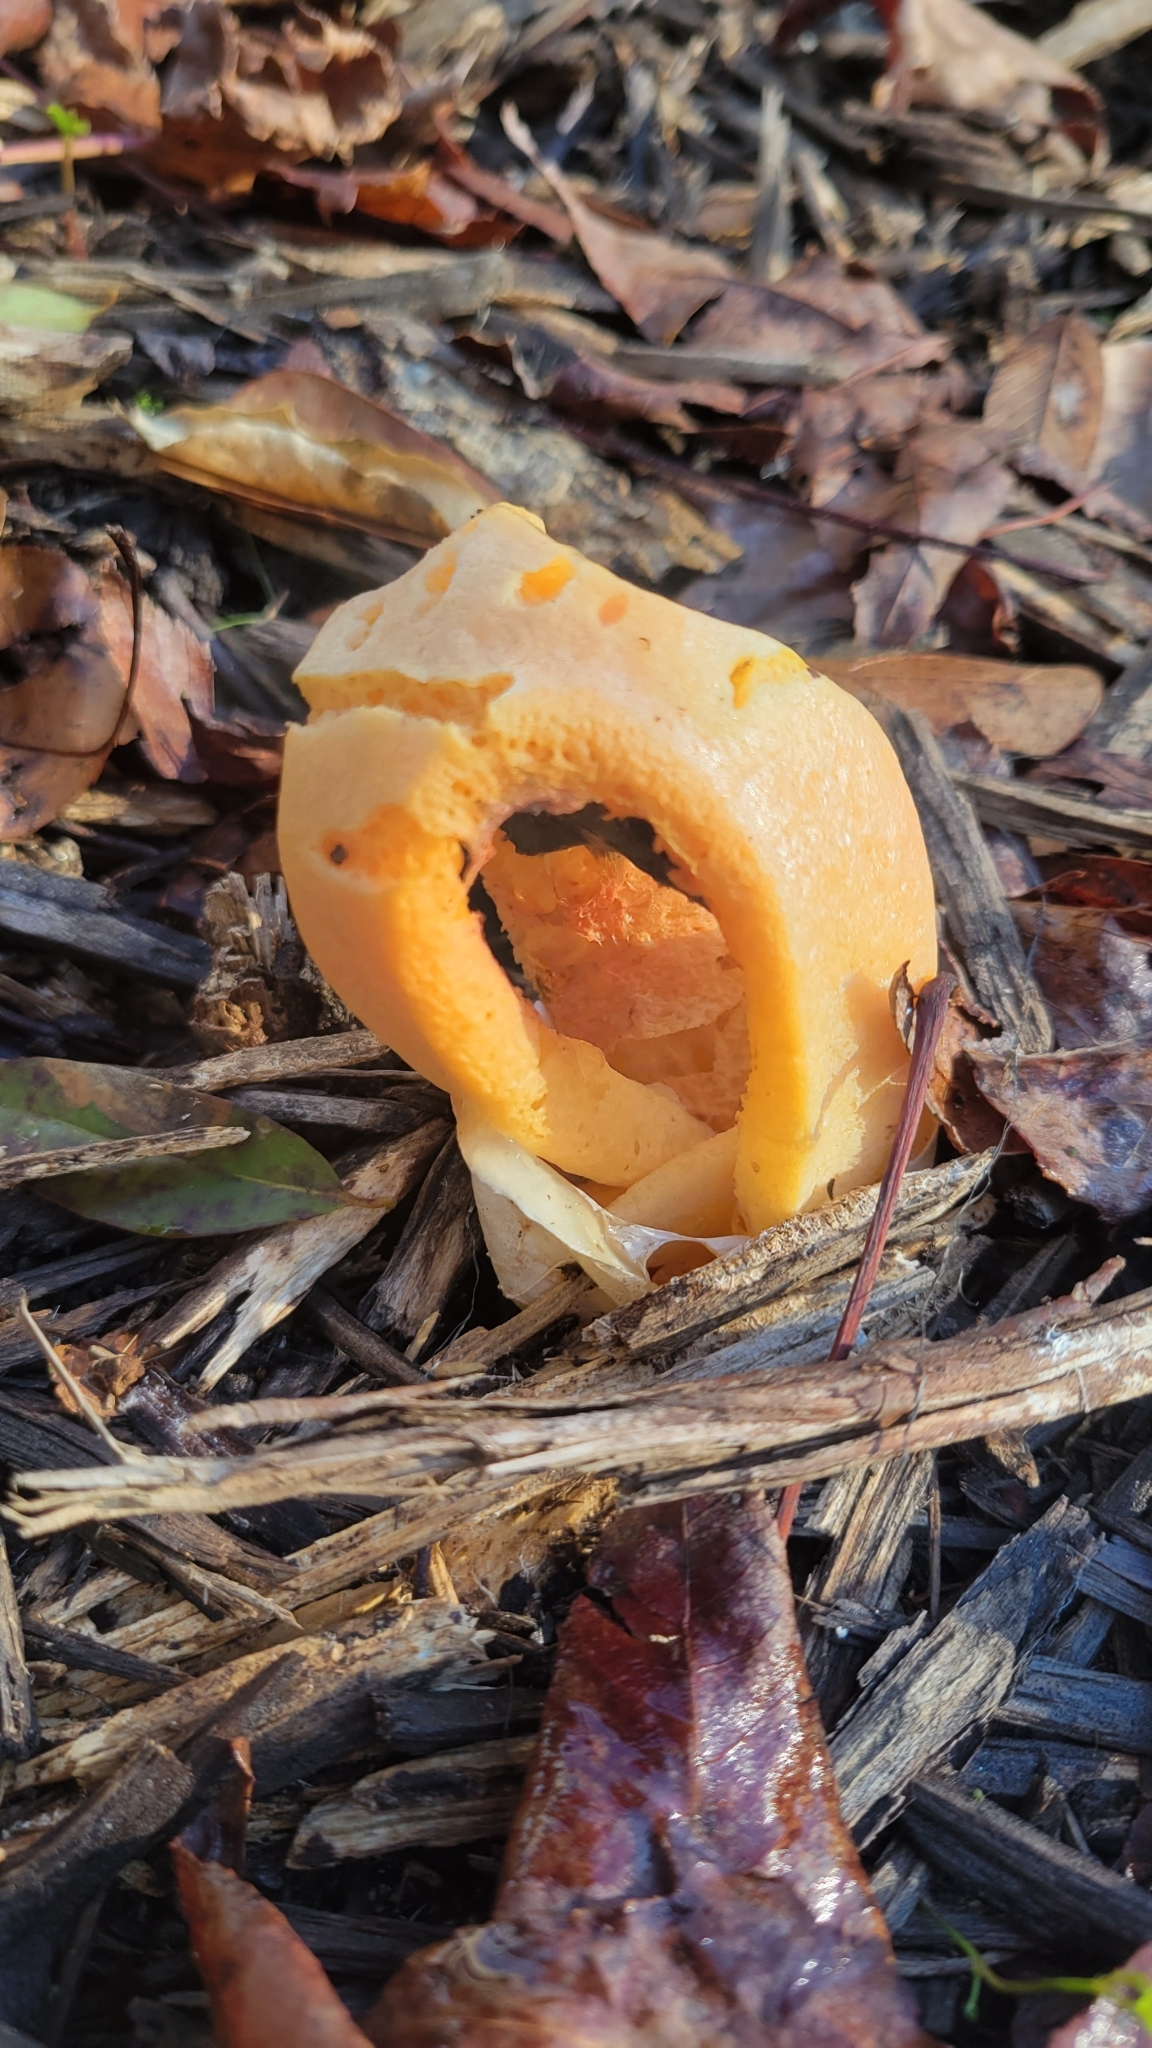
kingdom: Fungi
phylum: Basidiomycota
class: Agaricomycetes
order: Phallales
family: Phallaceae
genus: Clathrus
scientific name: Clathrus columnatus
